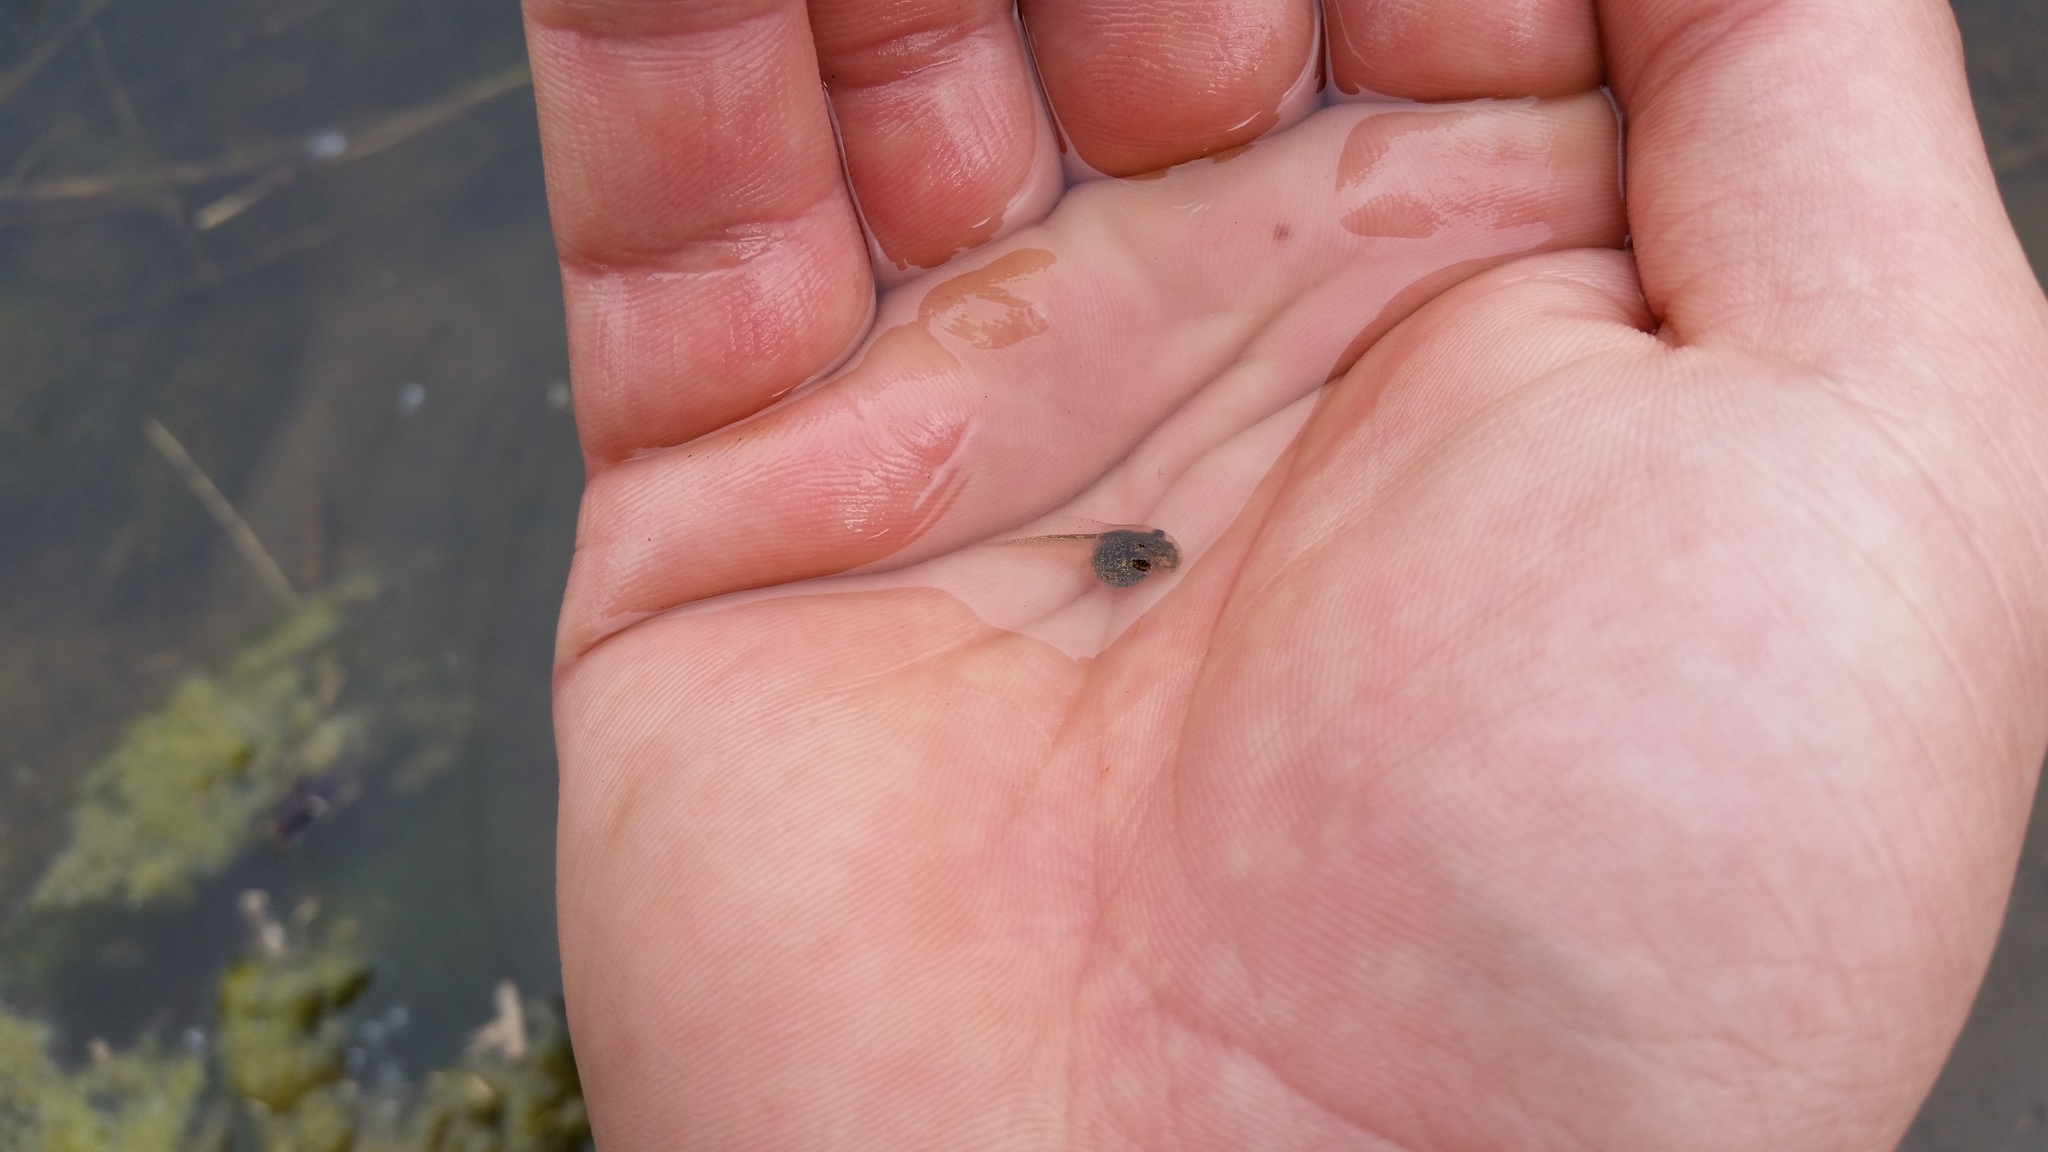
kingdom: Animalia
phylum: Chordata
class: Amphibia
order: Anura
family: Hylidae
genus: Pseudacris
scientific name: Pseudacris regilla
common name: Pacific chorus frog
